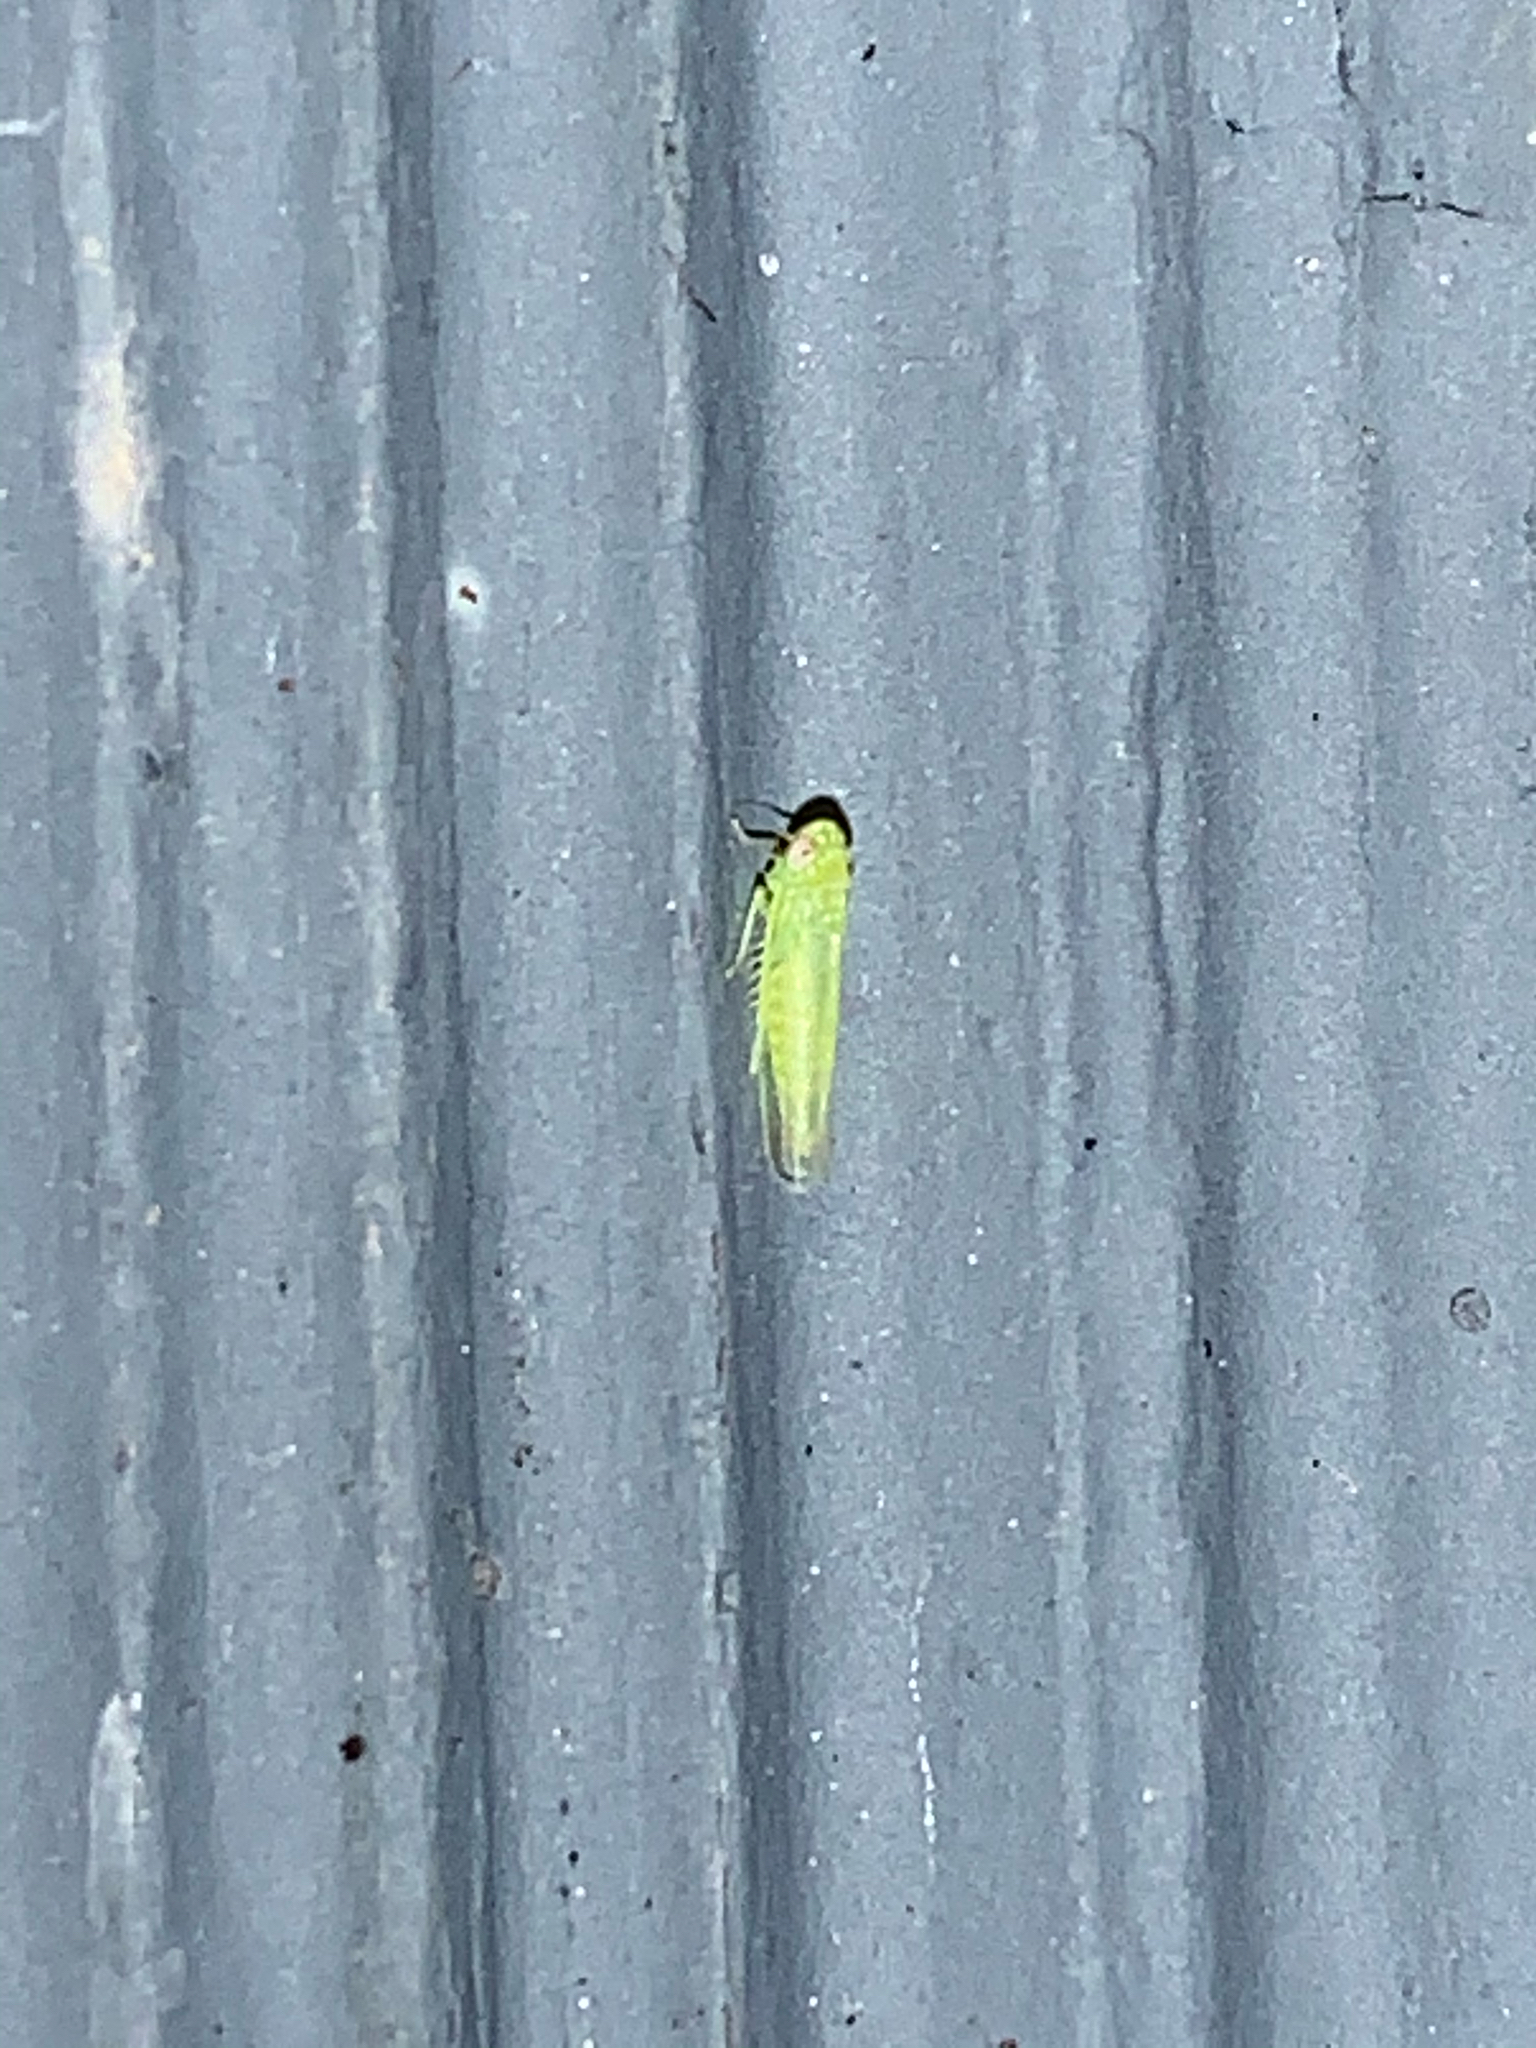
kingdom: Animalia
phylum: Arthropoda
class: Insecta
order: Hemiptera
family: Cicadellidae
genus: Empoasca
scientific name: Empoasca fabae
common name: Potato leafhopper
